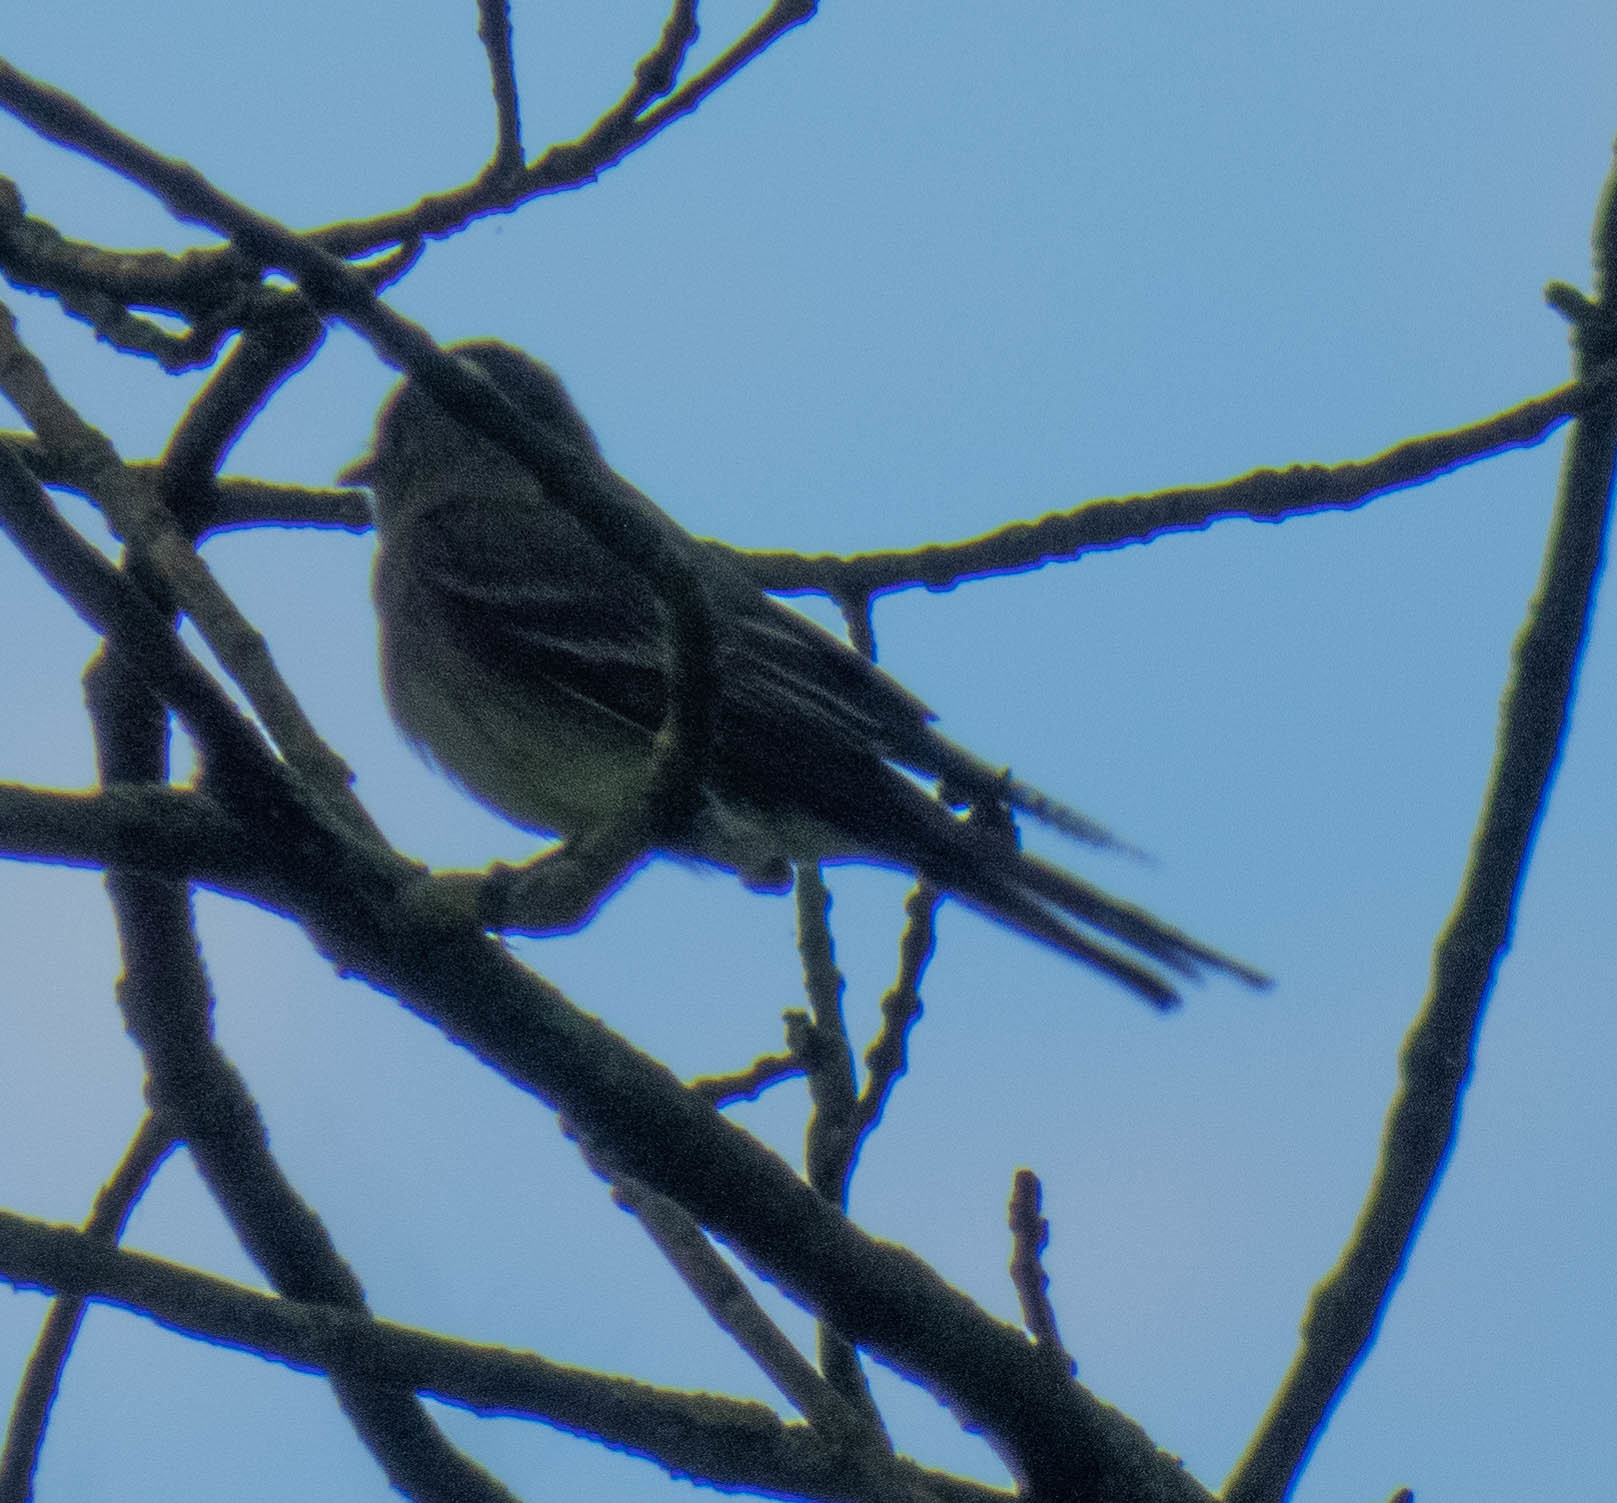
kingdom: Animalia
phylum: Chordata
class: Aves
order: Passeriformes
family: Tyrannidae
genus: Contopus
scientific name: Contopus virens
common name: Eastern wood-pewee
